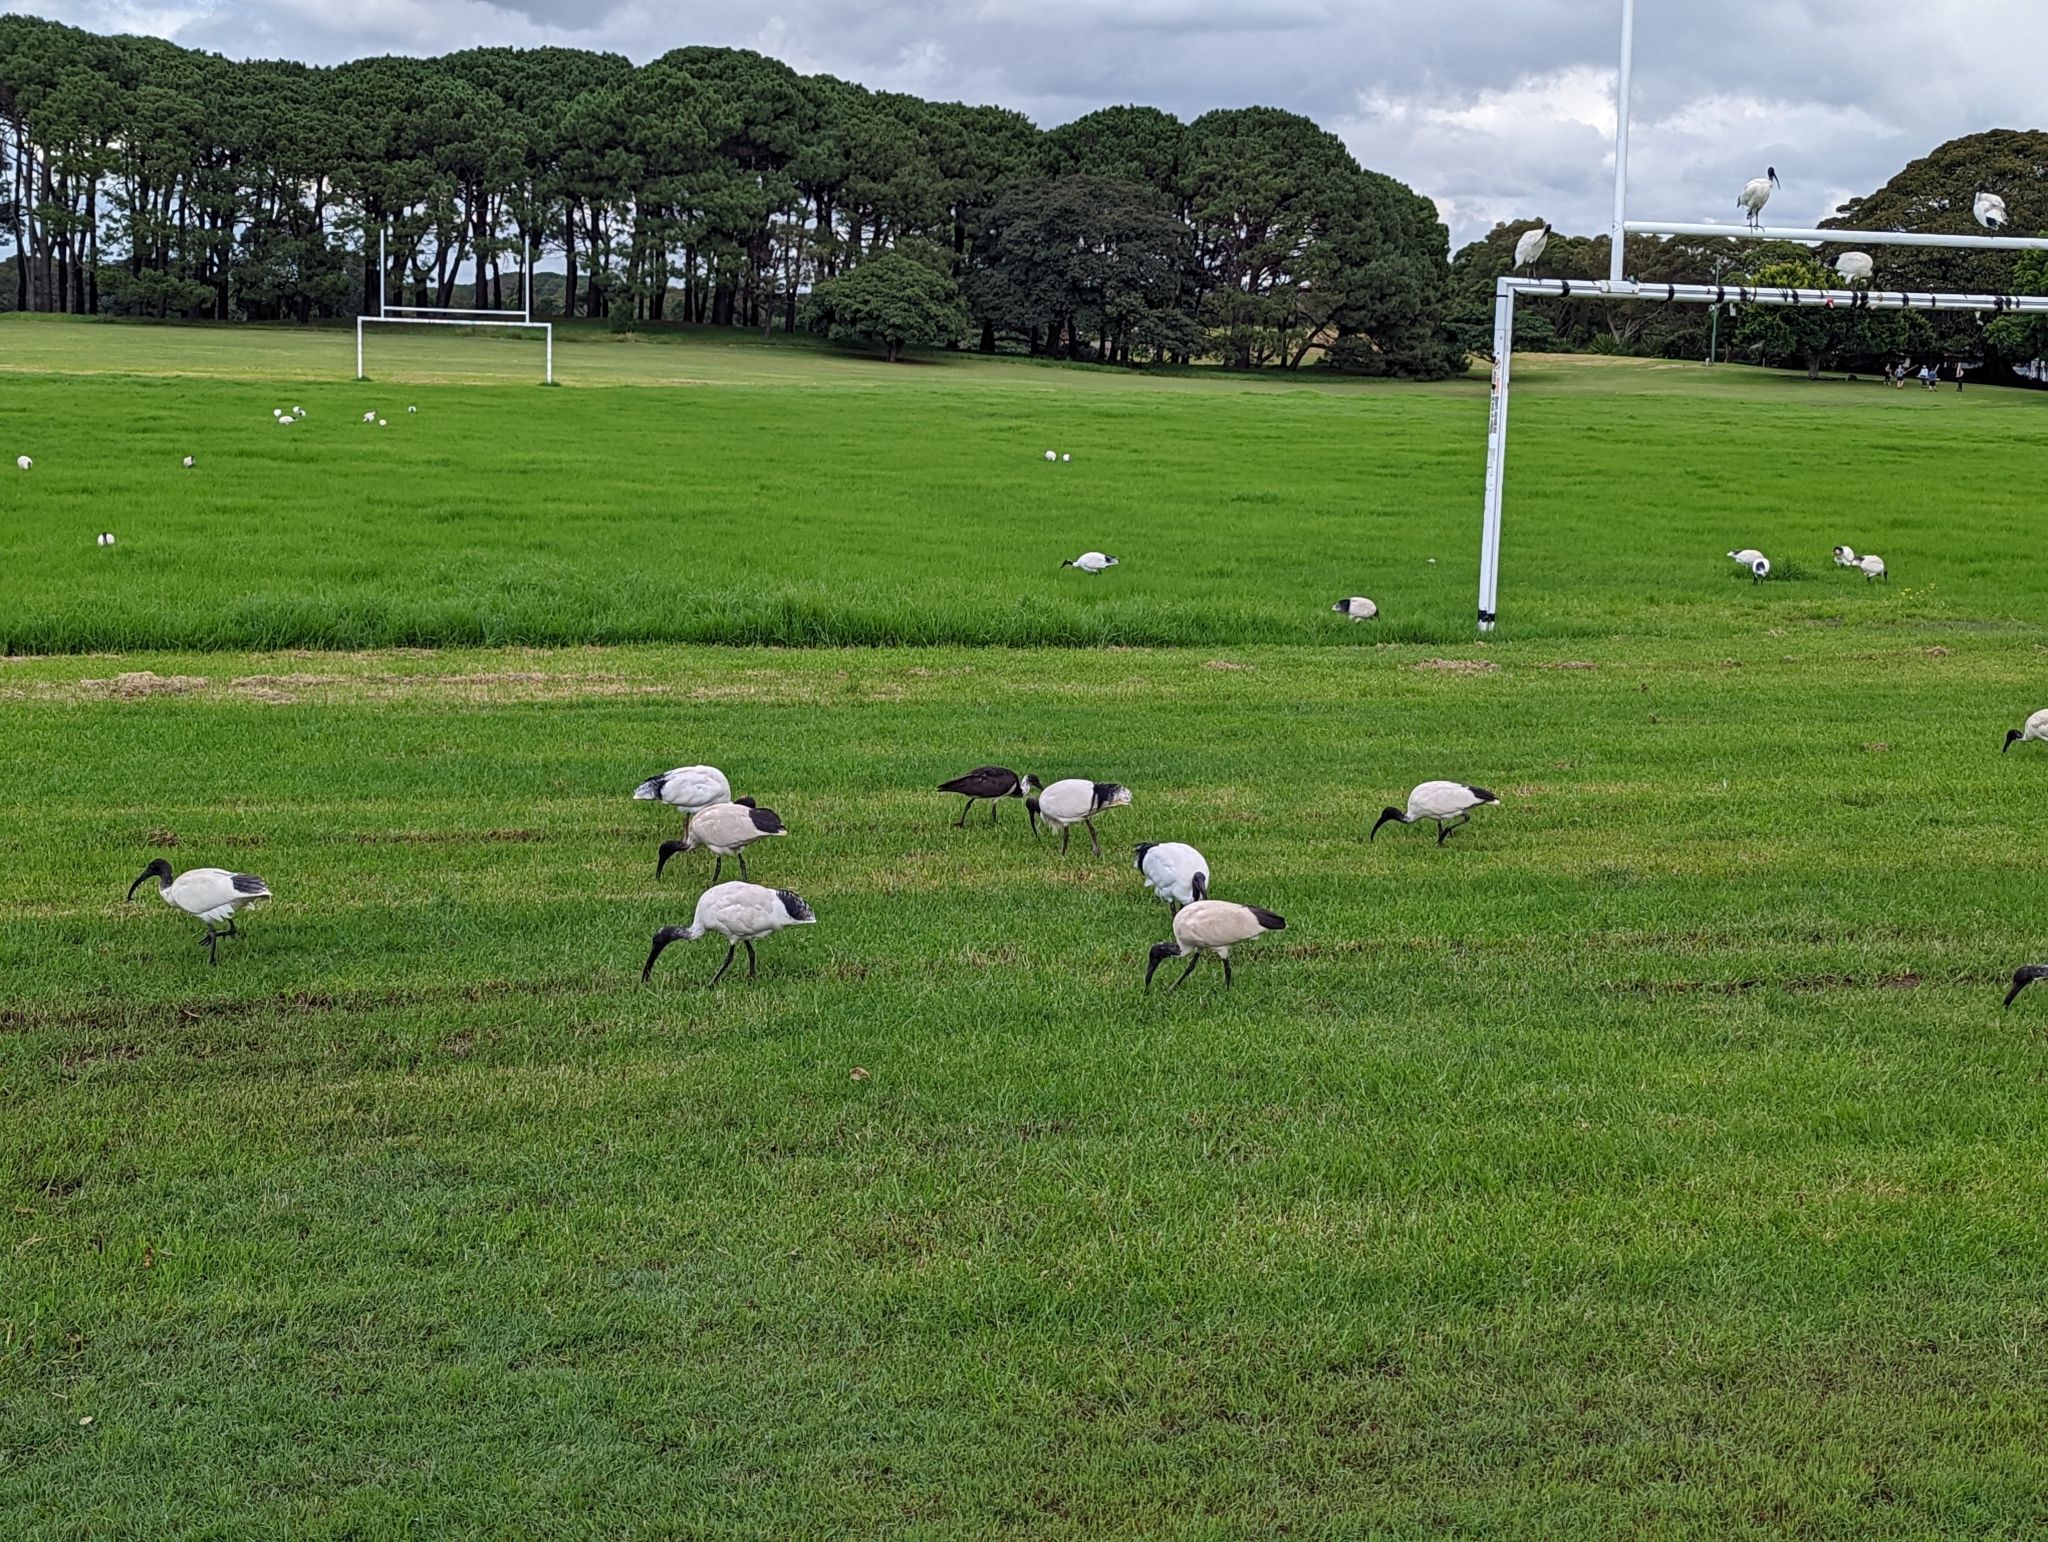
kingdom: Animalia
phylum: Chordata
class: Aves
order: Pelecaniformes
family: Threskiornithidae
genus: Threskiornis
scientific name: Threskiornis spinicollis
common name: Straw-necked ibis
